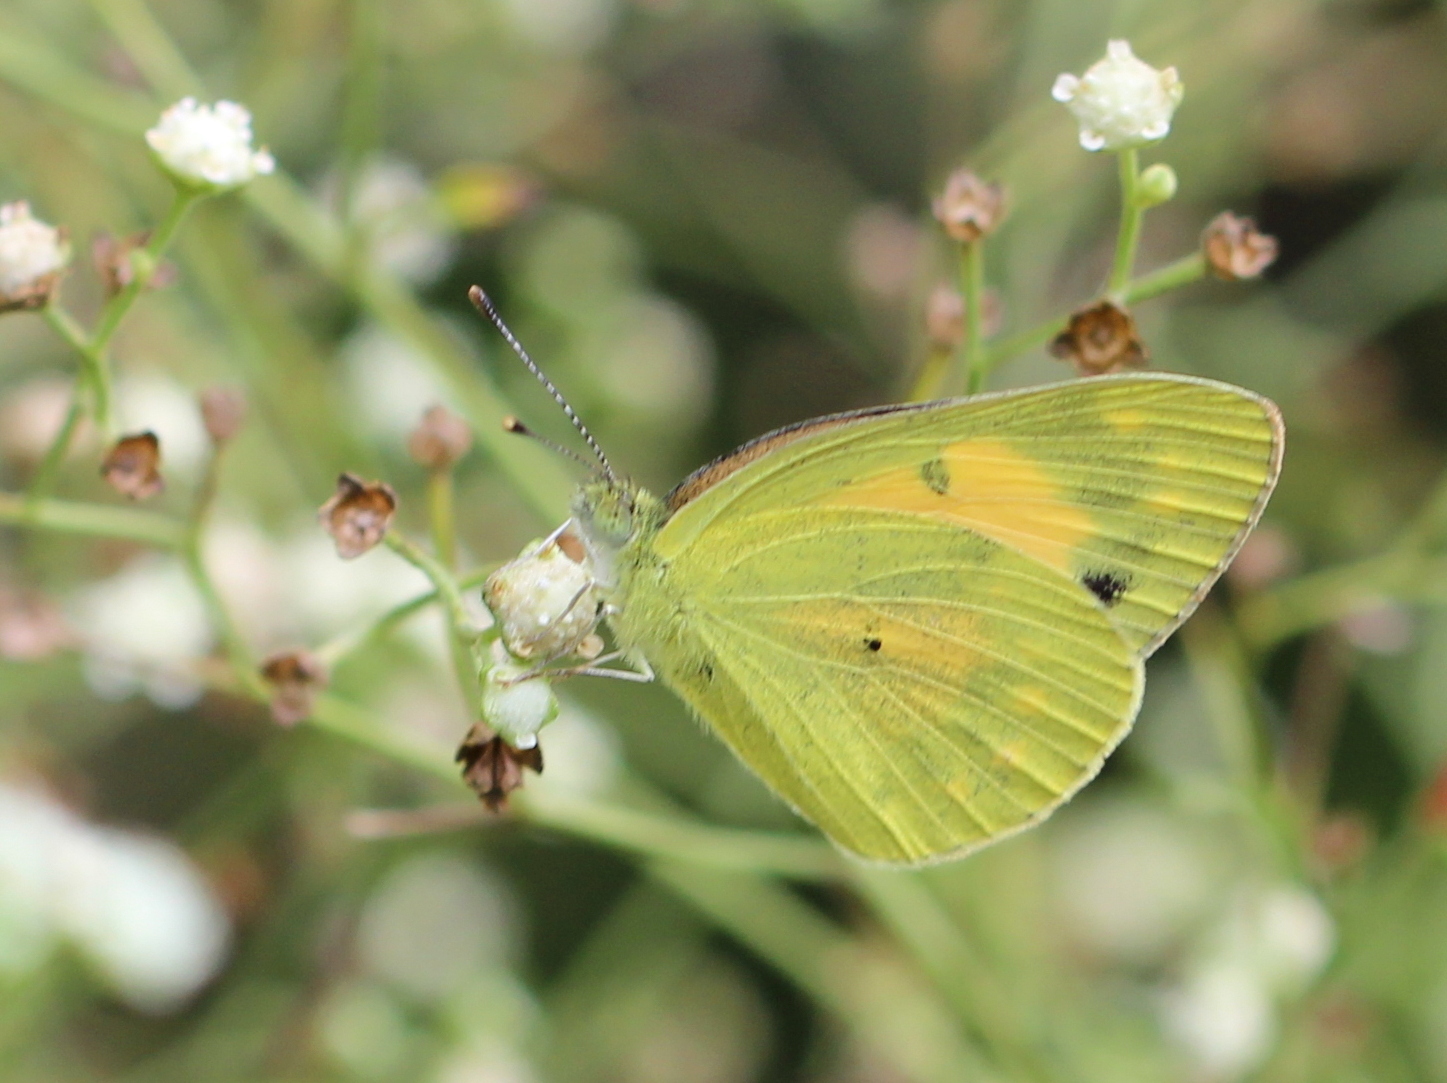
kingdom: Animalia
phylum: Arthropoda
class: Insecta
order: Lepidoptera
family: Pieridae
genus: Colotis
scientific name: Colotis amata
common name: Small salmon arab
